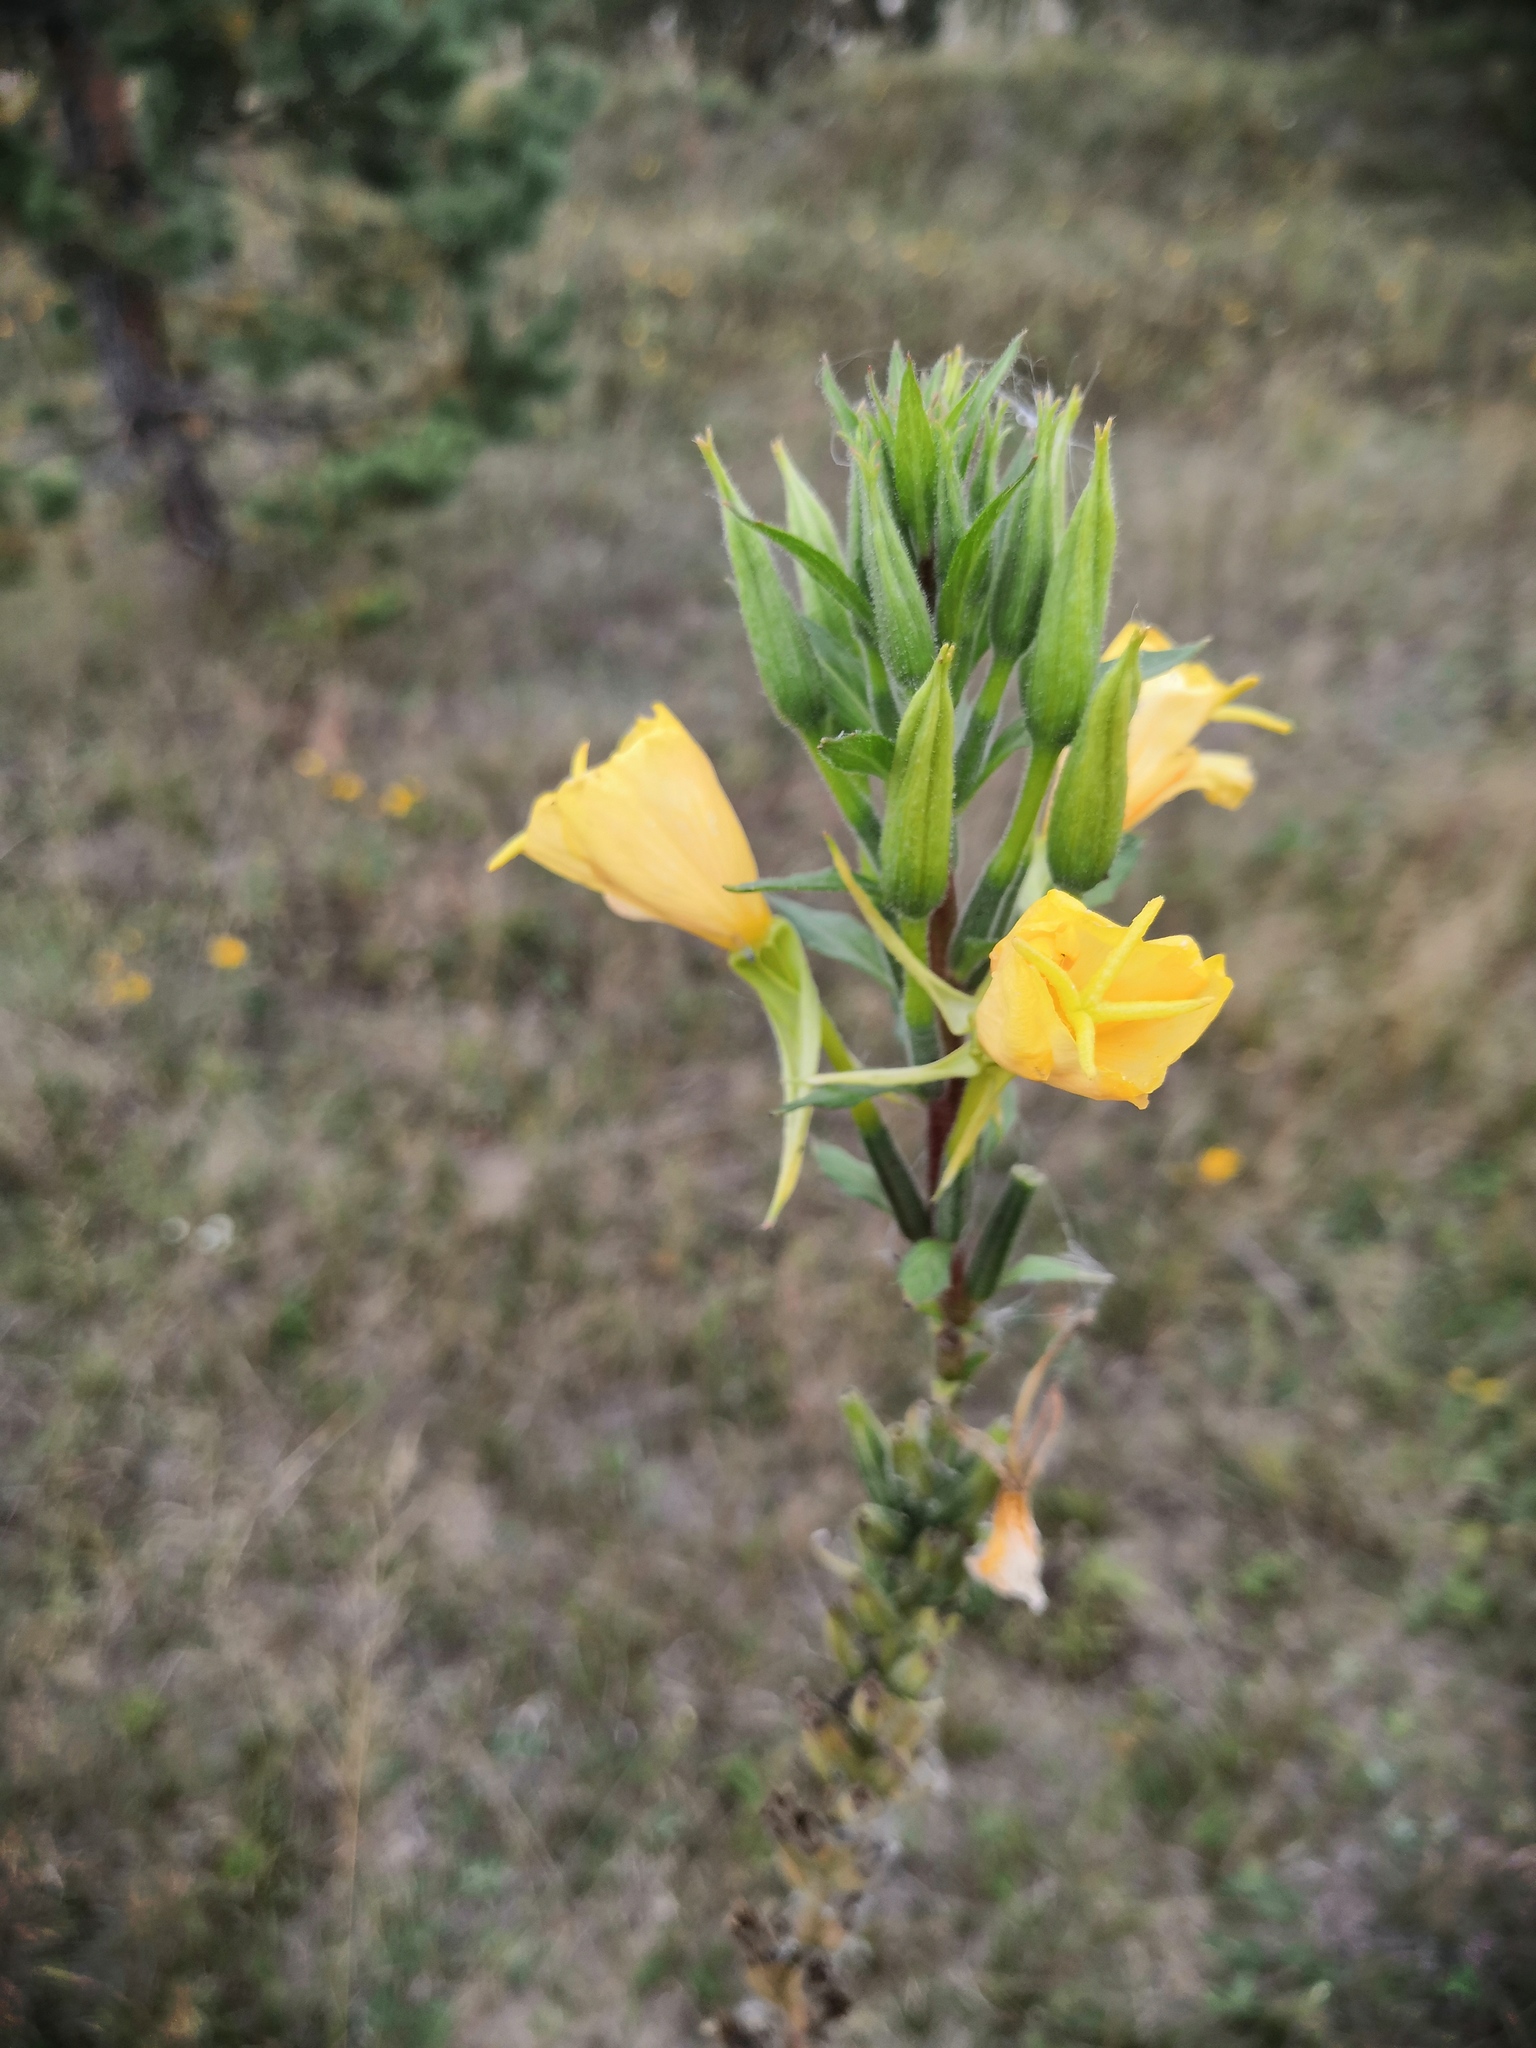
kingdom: Plantae
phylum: Tracheophyta
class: Magnoliopsida
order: Myrtales
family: Onagraceae
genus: Oenothera
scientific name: Oenothera rubricaulis
